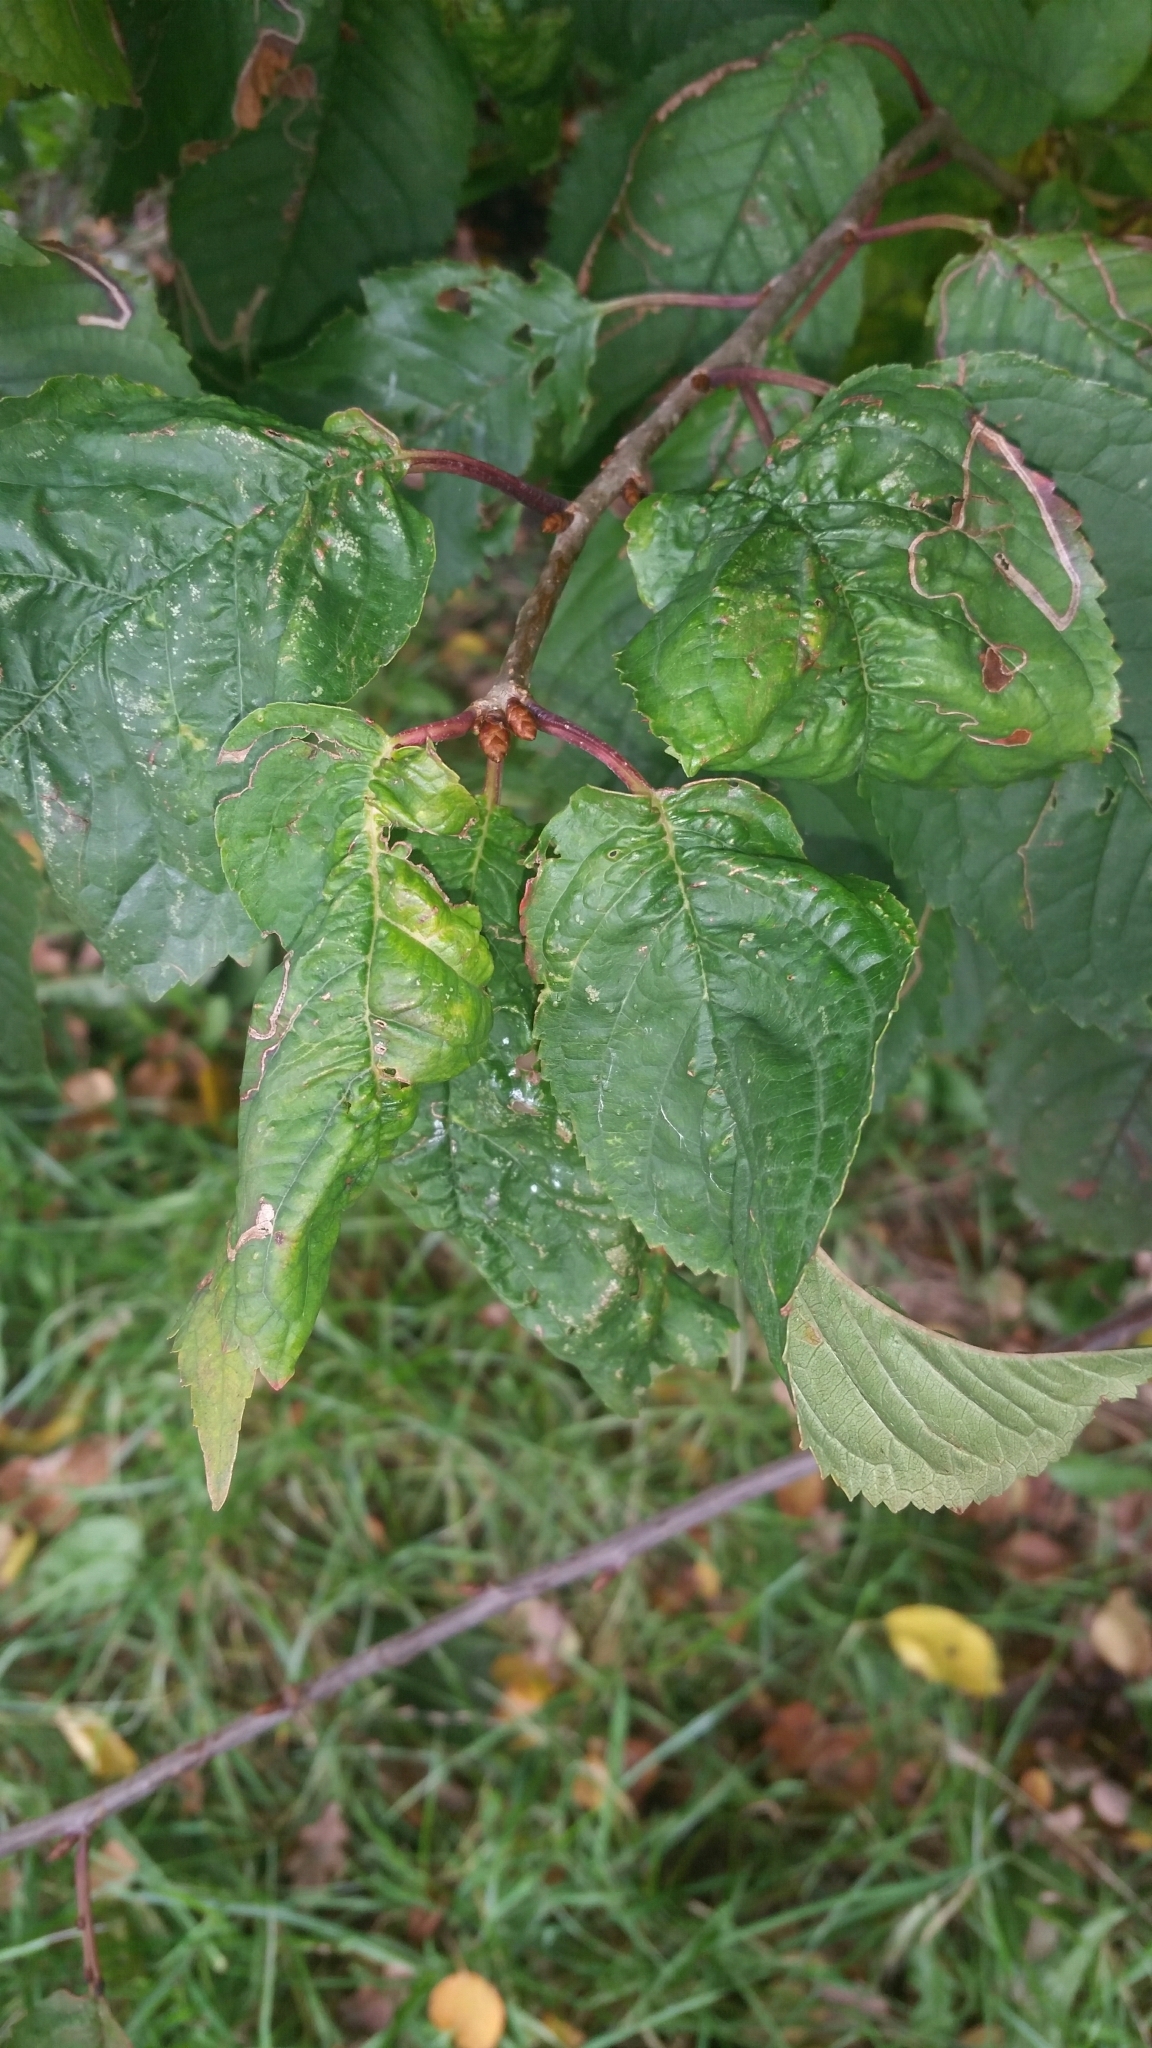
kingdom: Animalia
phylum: Arthropoda
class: Insecta
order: Hemiptera
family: Aphididae
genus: Myzus
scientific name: Myzus cerasi
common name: Black cherry aphid
